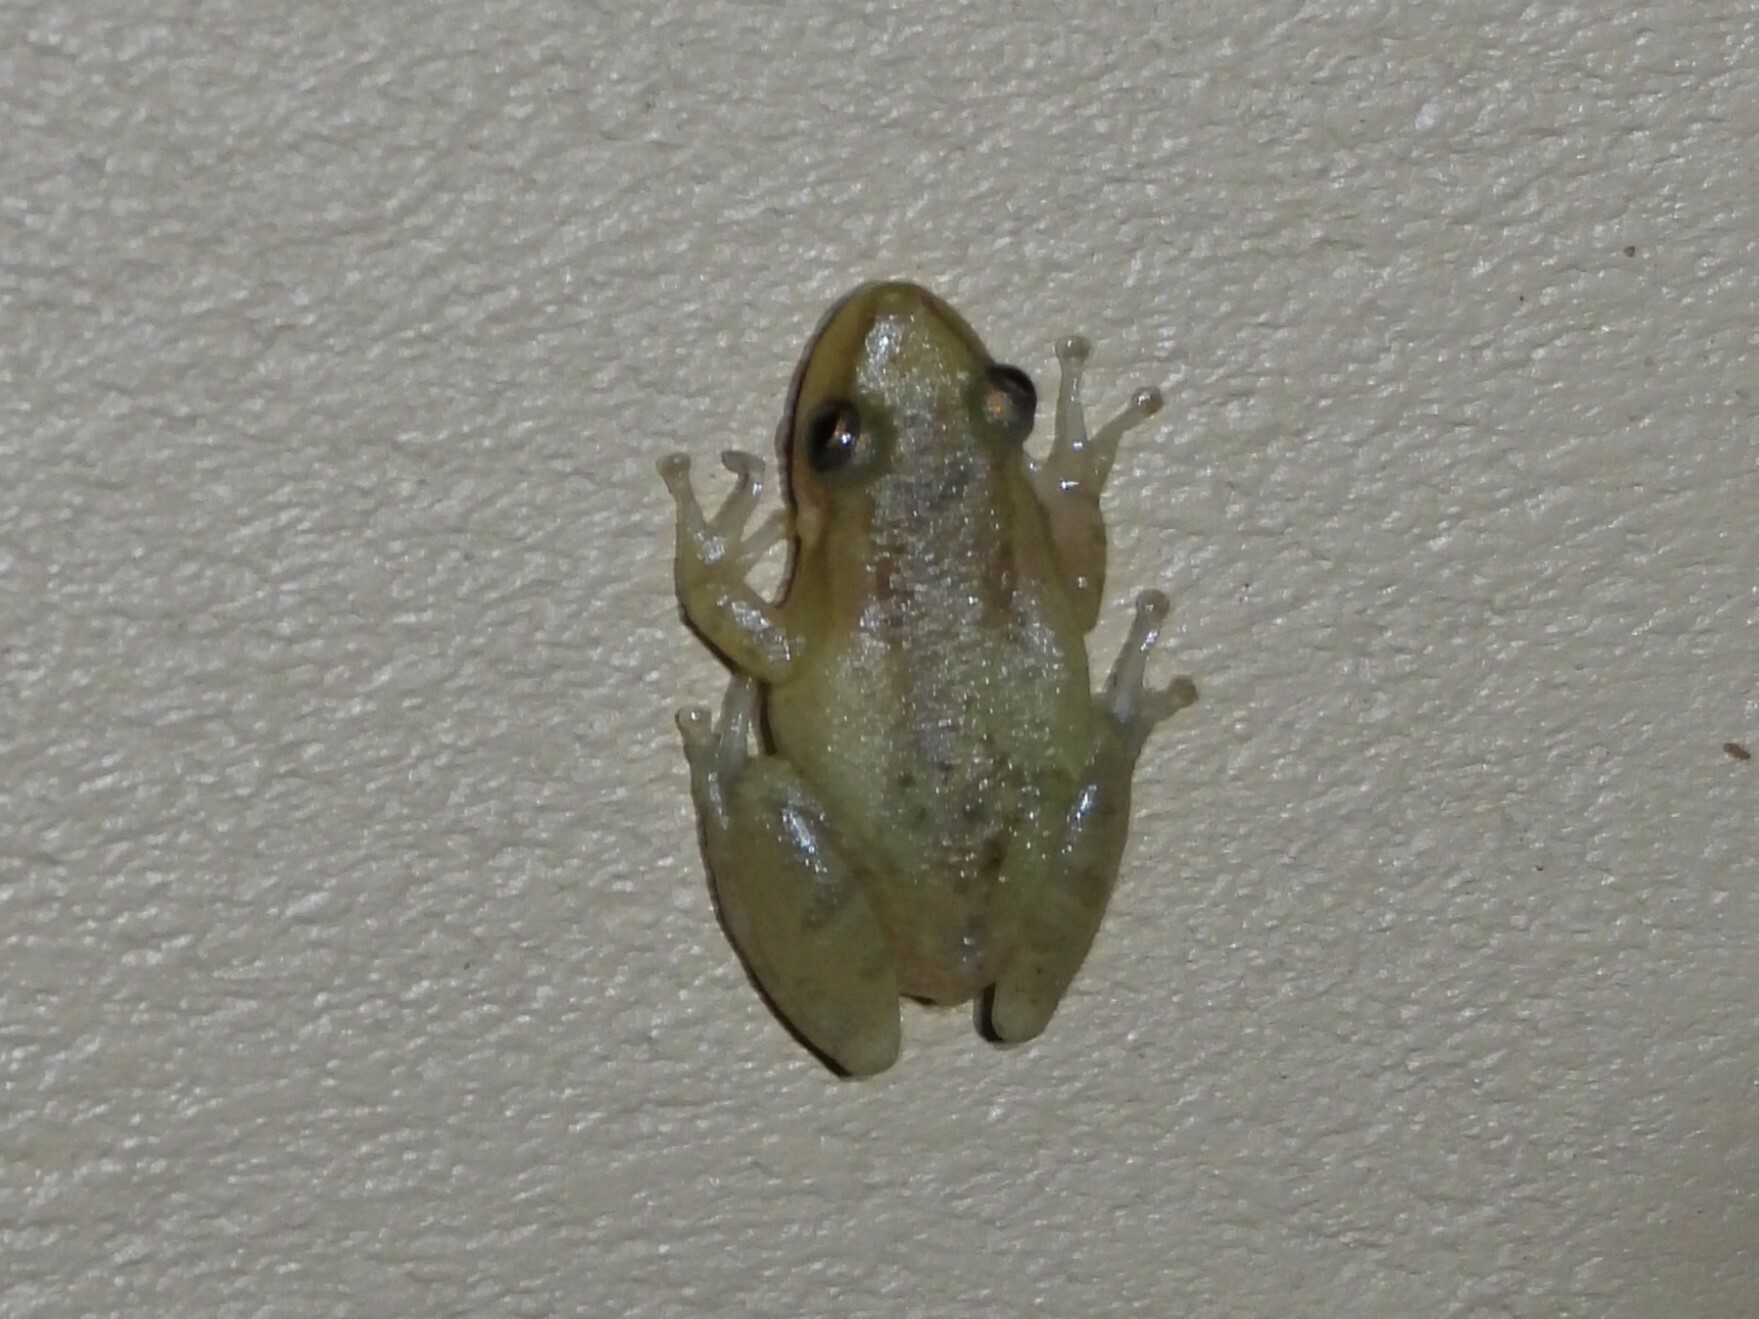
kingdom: Animalia
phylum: Chordata
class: Amphibia
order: Anura
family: Hylidae
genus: Scinax
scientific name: Scinax staufferi
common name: Stauffer's long-nosed treefrog
